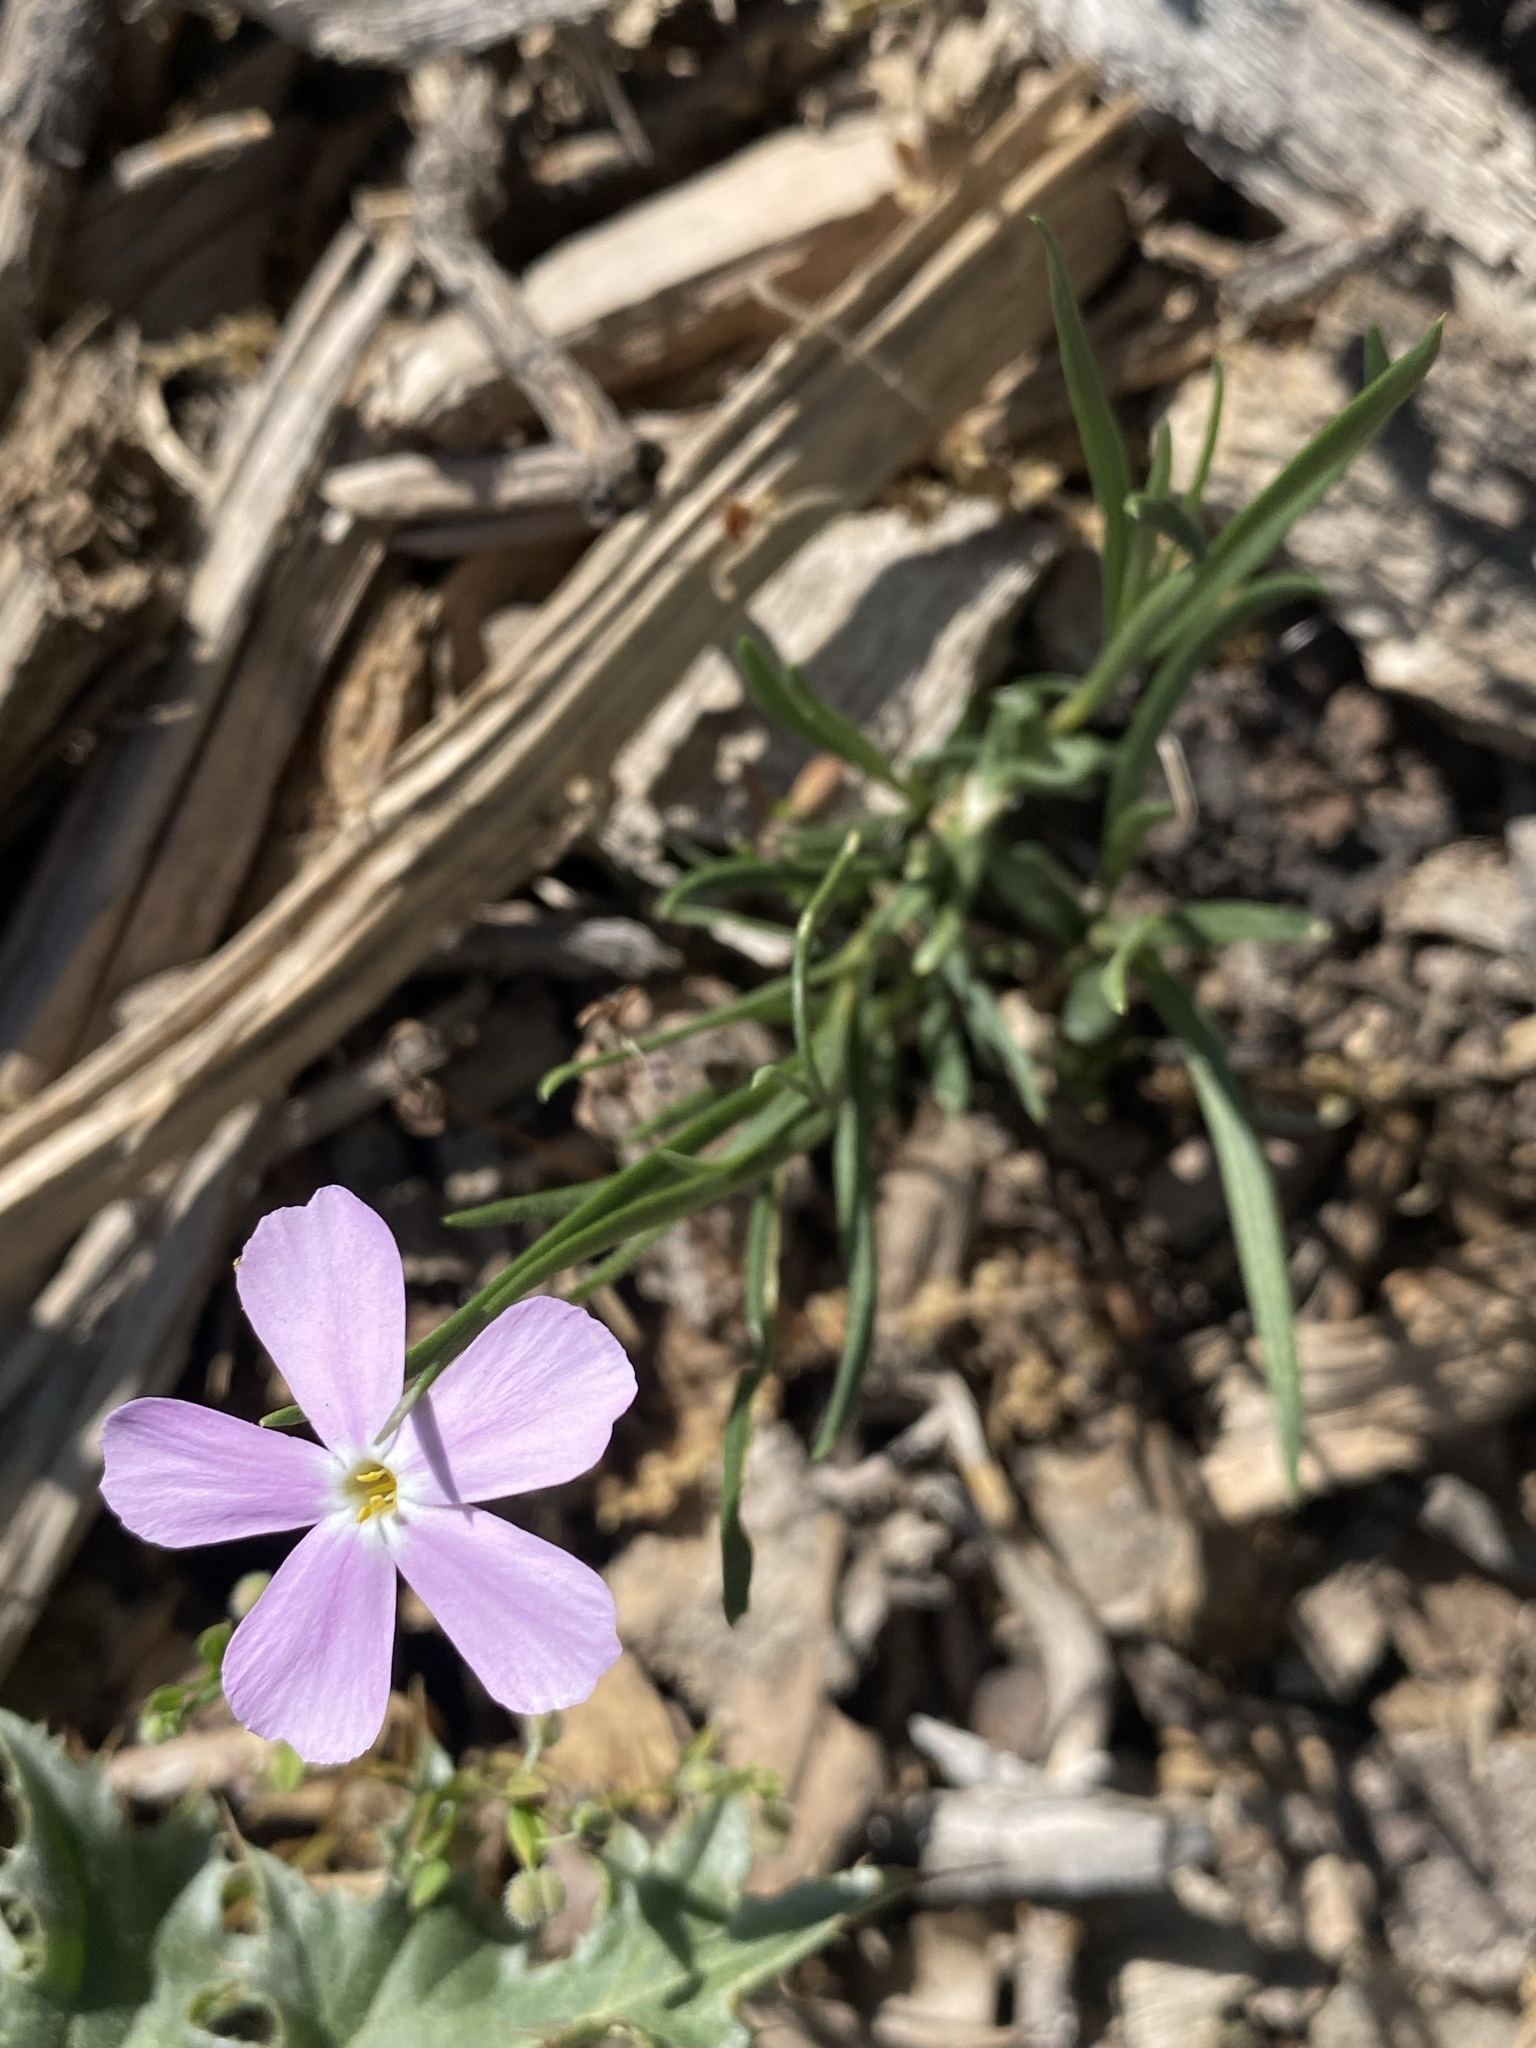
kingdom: Plantae
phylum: Tracheophyta
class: Magnoliopsida
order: Ericales
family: Polemoniaceae
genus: Phlox
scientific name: Phlox longifolia
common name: Longleaf phlox
